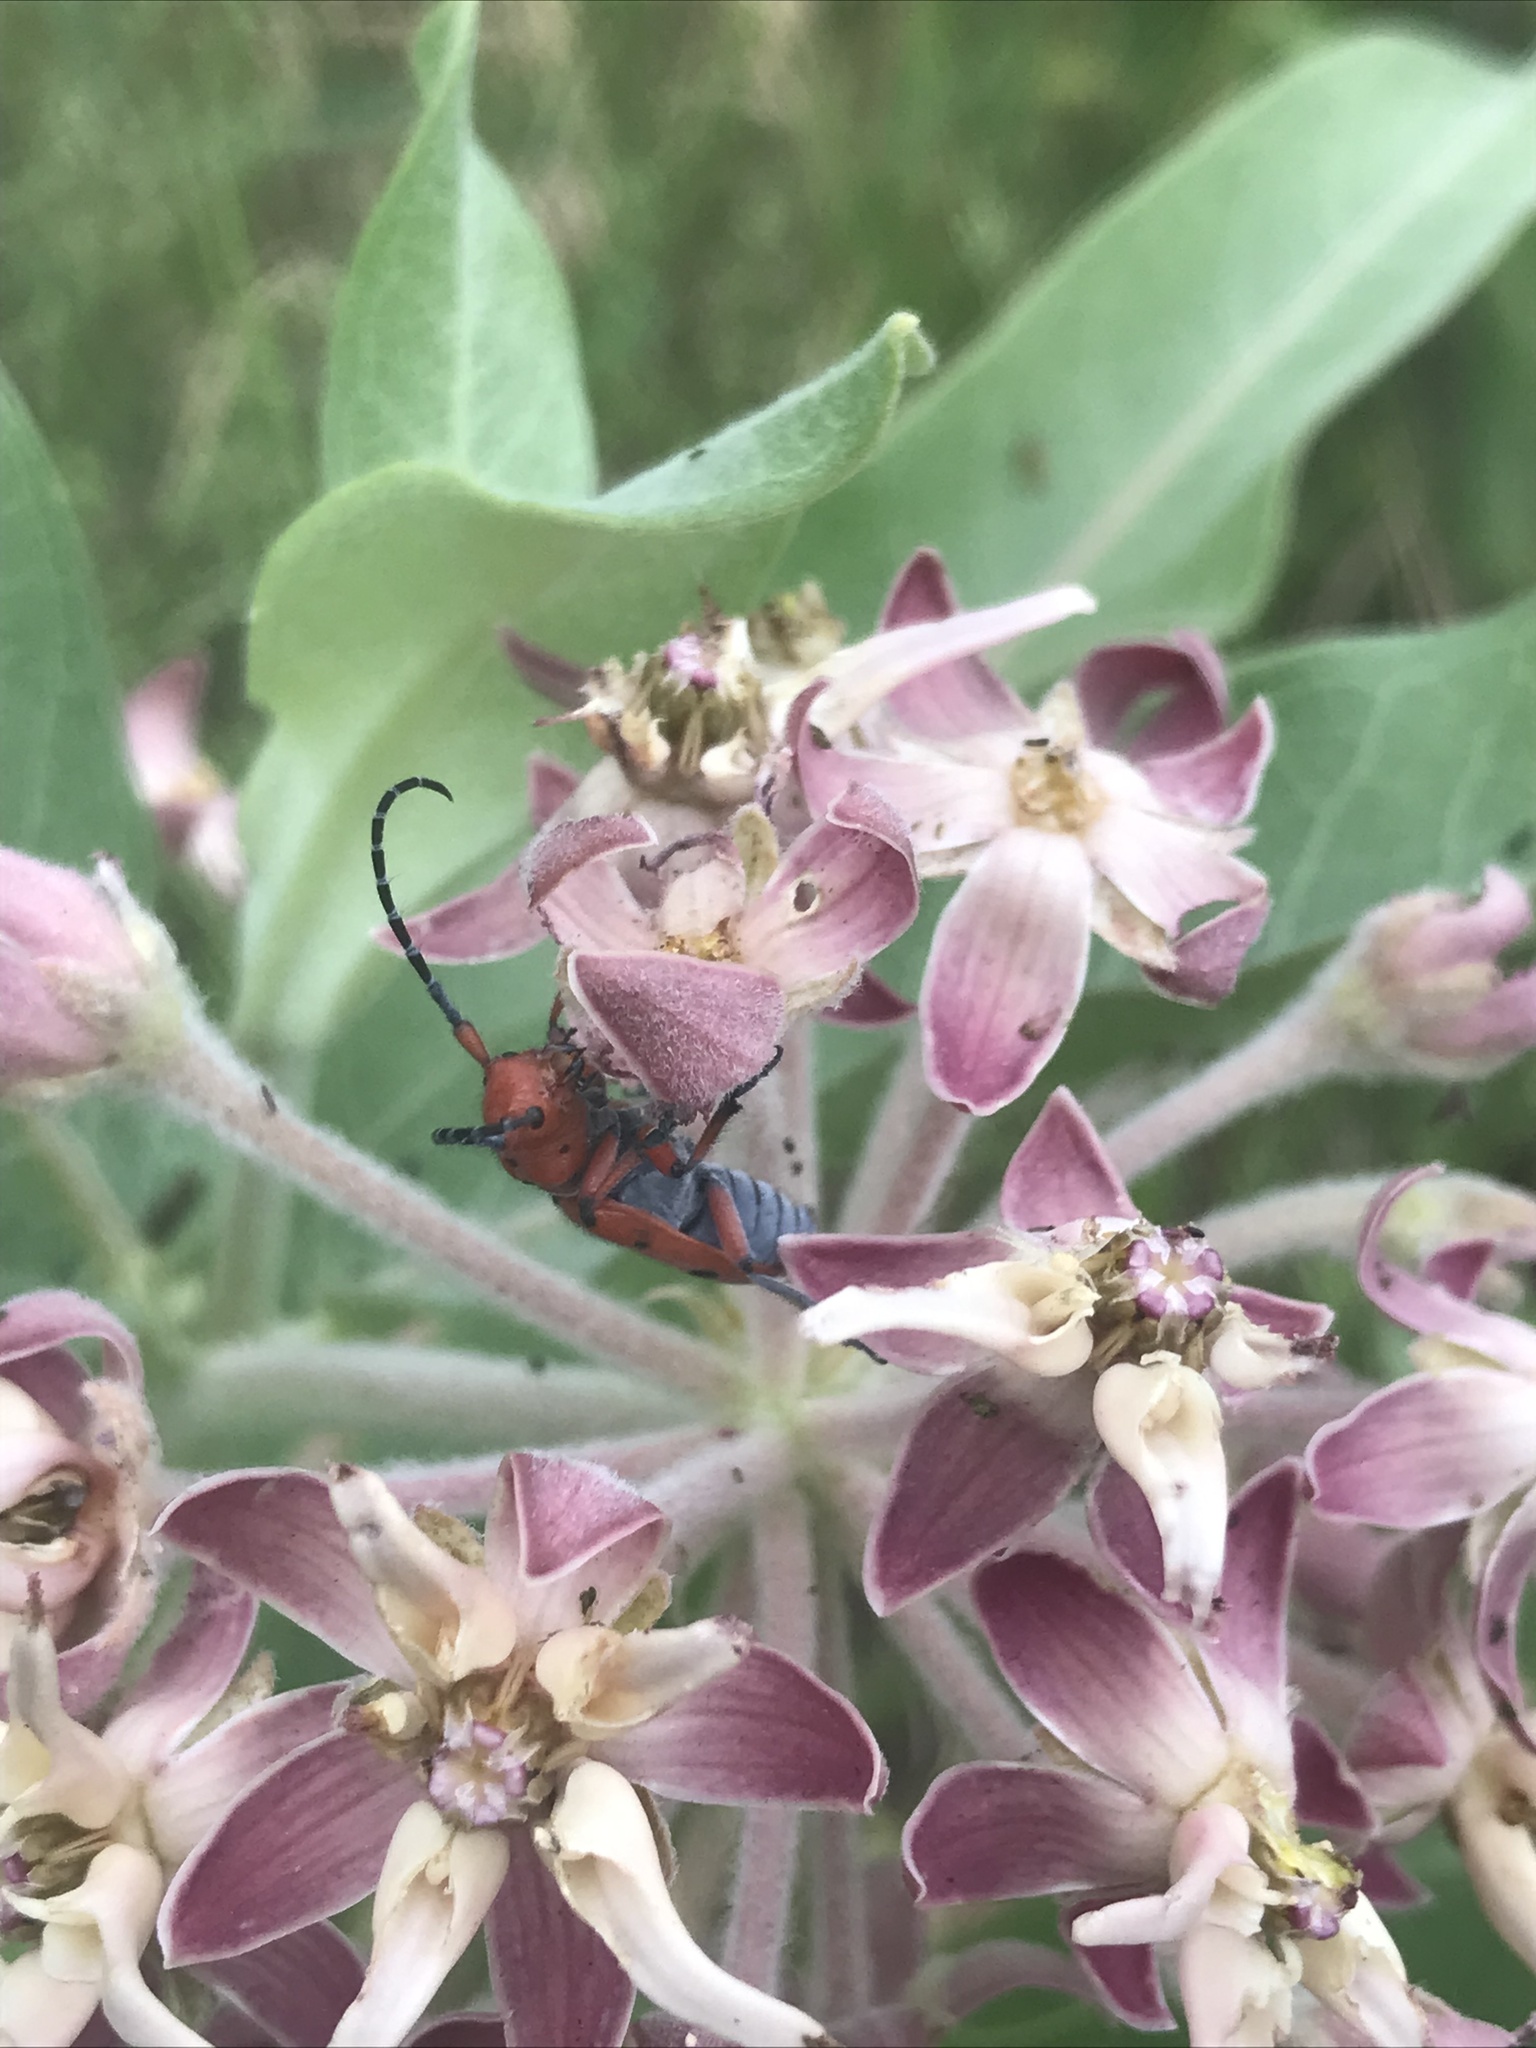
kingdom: Animalia
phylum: Arthropoda
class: Insecta
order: Coleoptera
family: Cerambycidae
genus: Tetraopes
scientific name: Tetraopes femoratus
